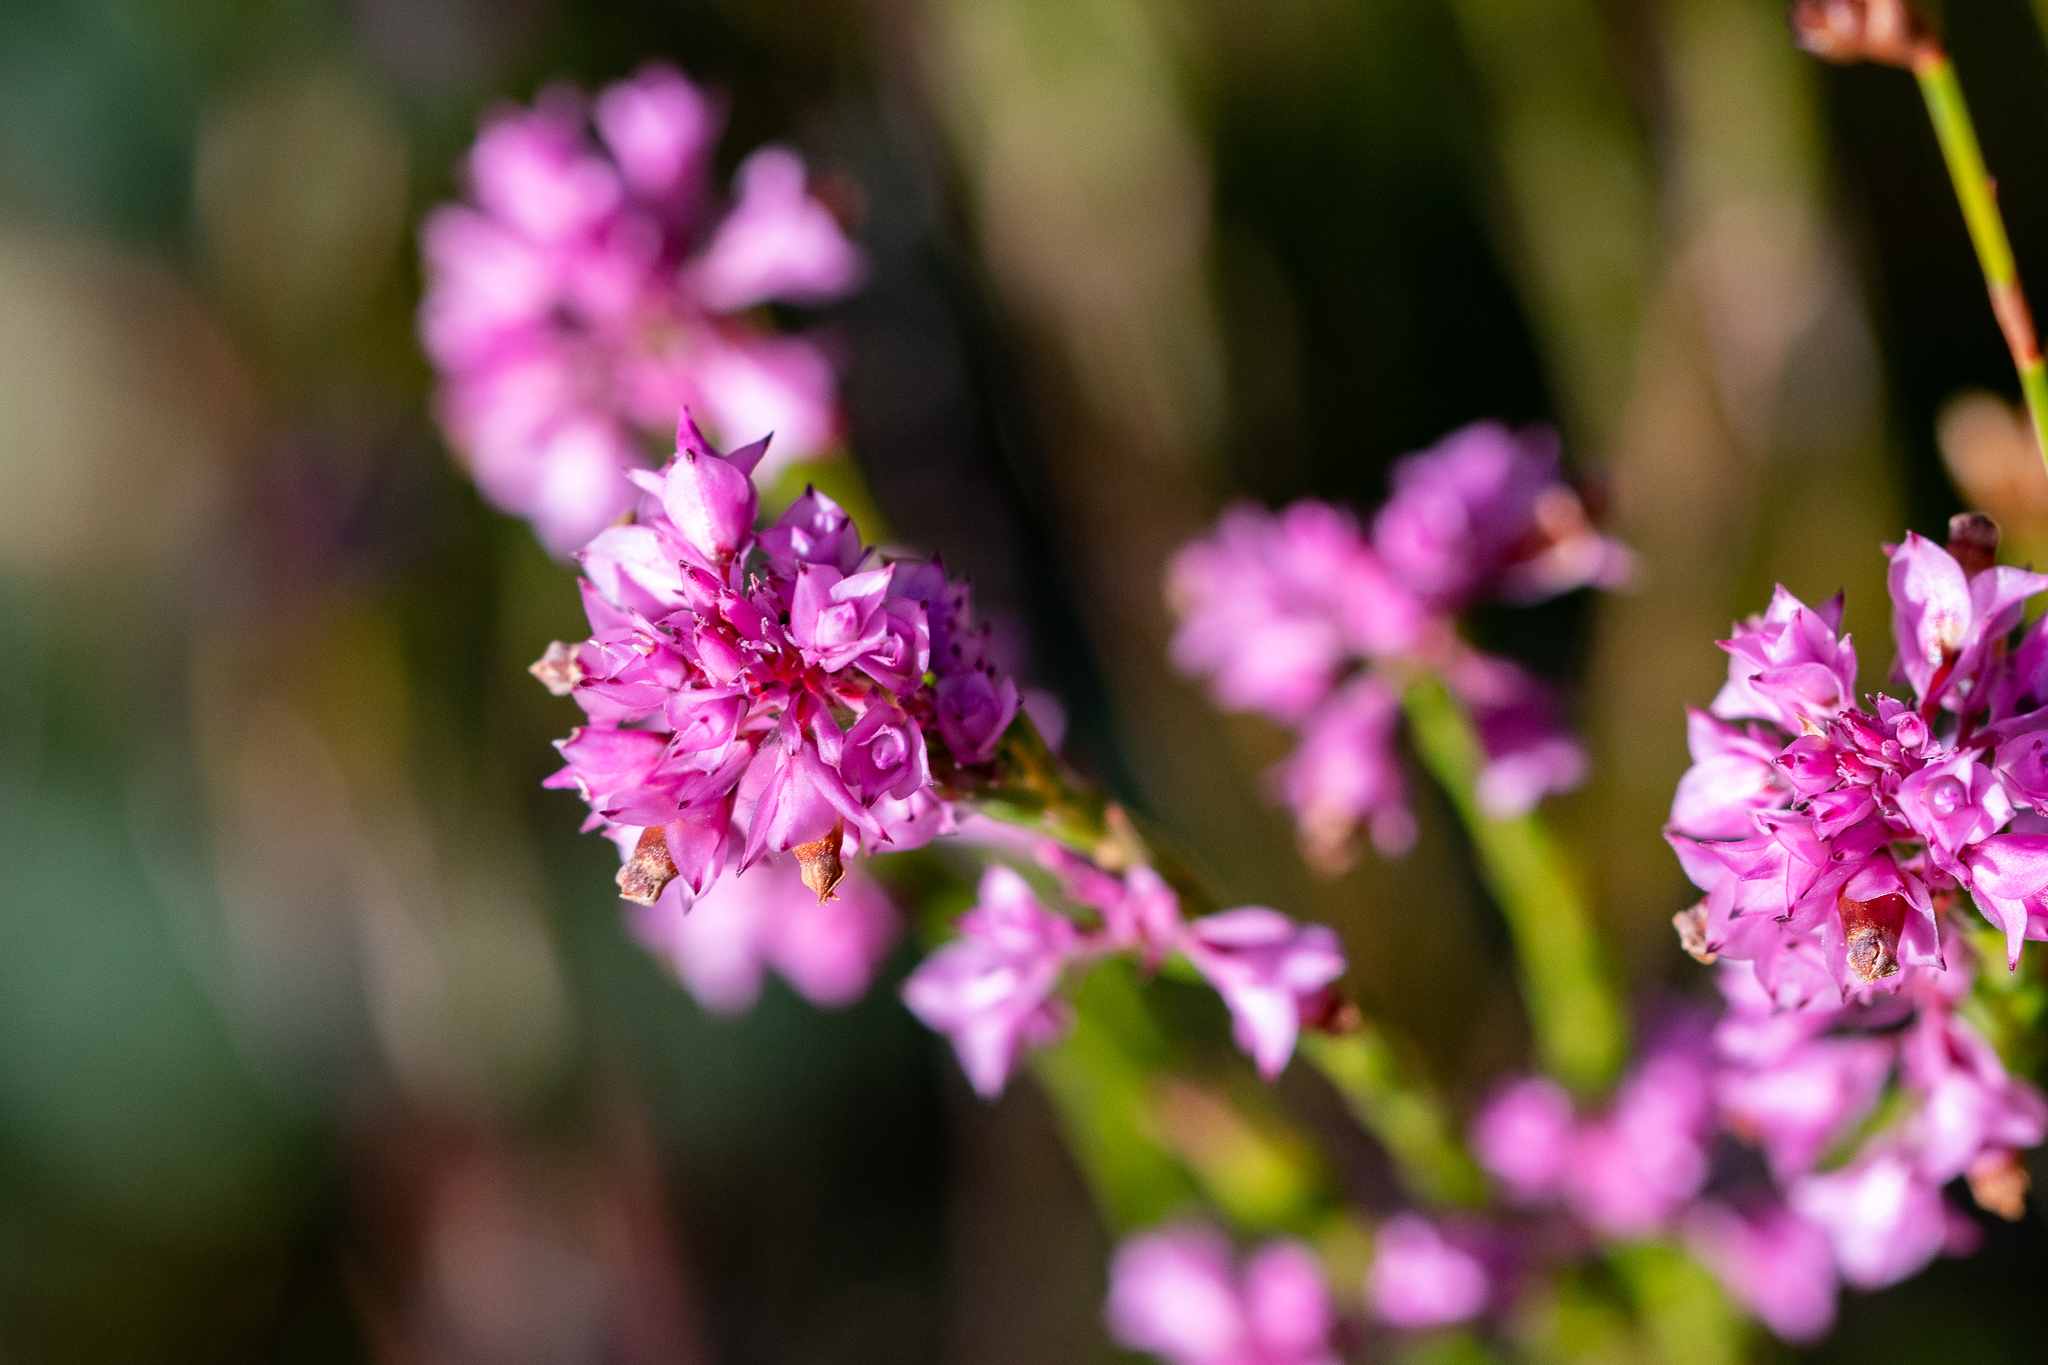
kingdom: Plantae
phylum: Tracheophyta
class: Magnoliopsida
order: Ericales
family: Ericaceae
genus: Erica
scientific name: Erica corifolia
